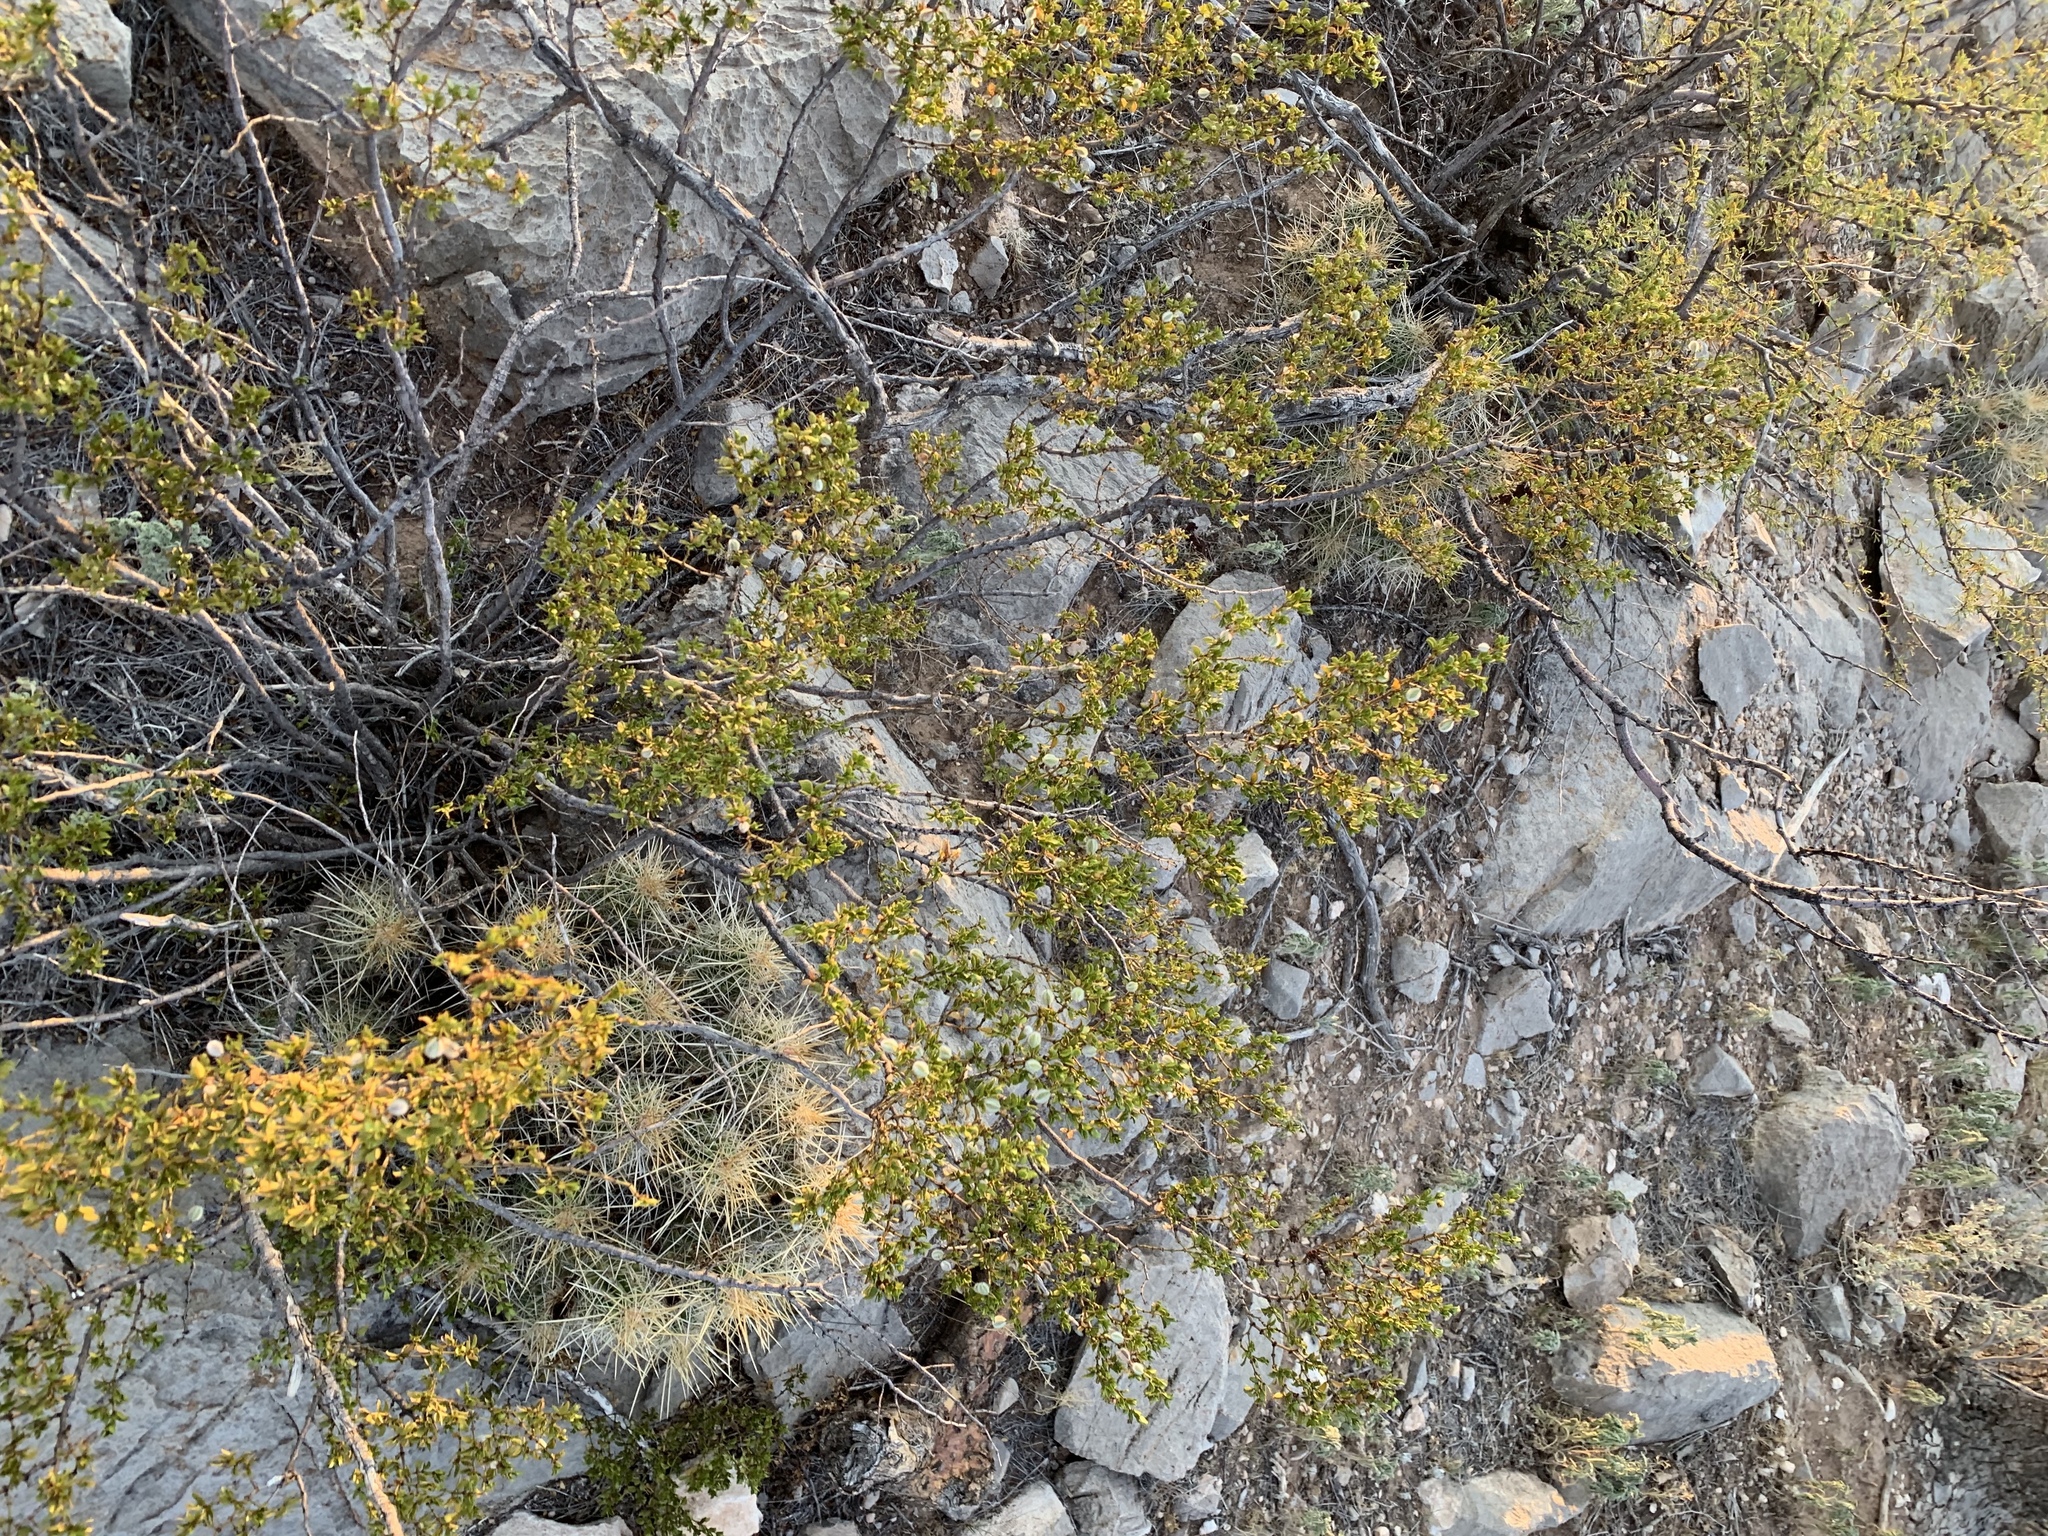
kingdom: Plantae
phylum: Tracheophyta
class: Magnoliopsida
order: Zygophyllales
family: Zygophyllaceae
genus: Larrea
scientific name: Larrea tridentata
